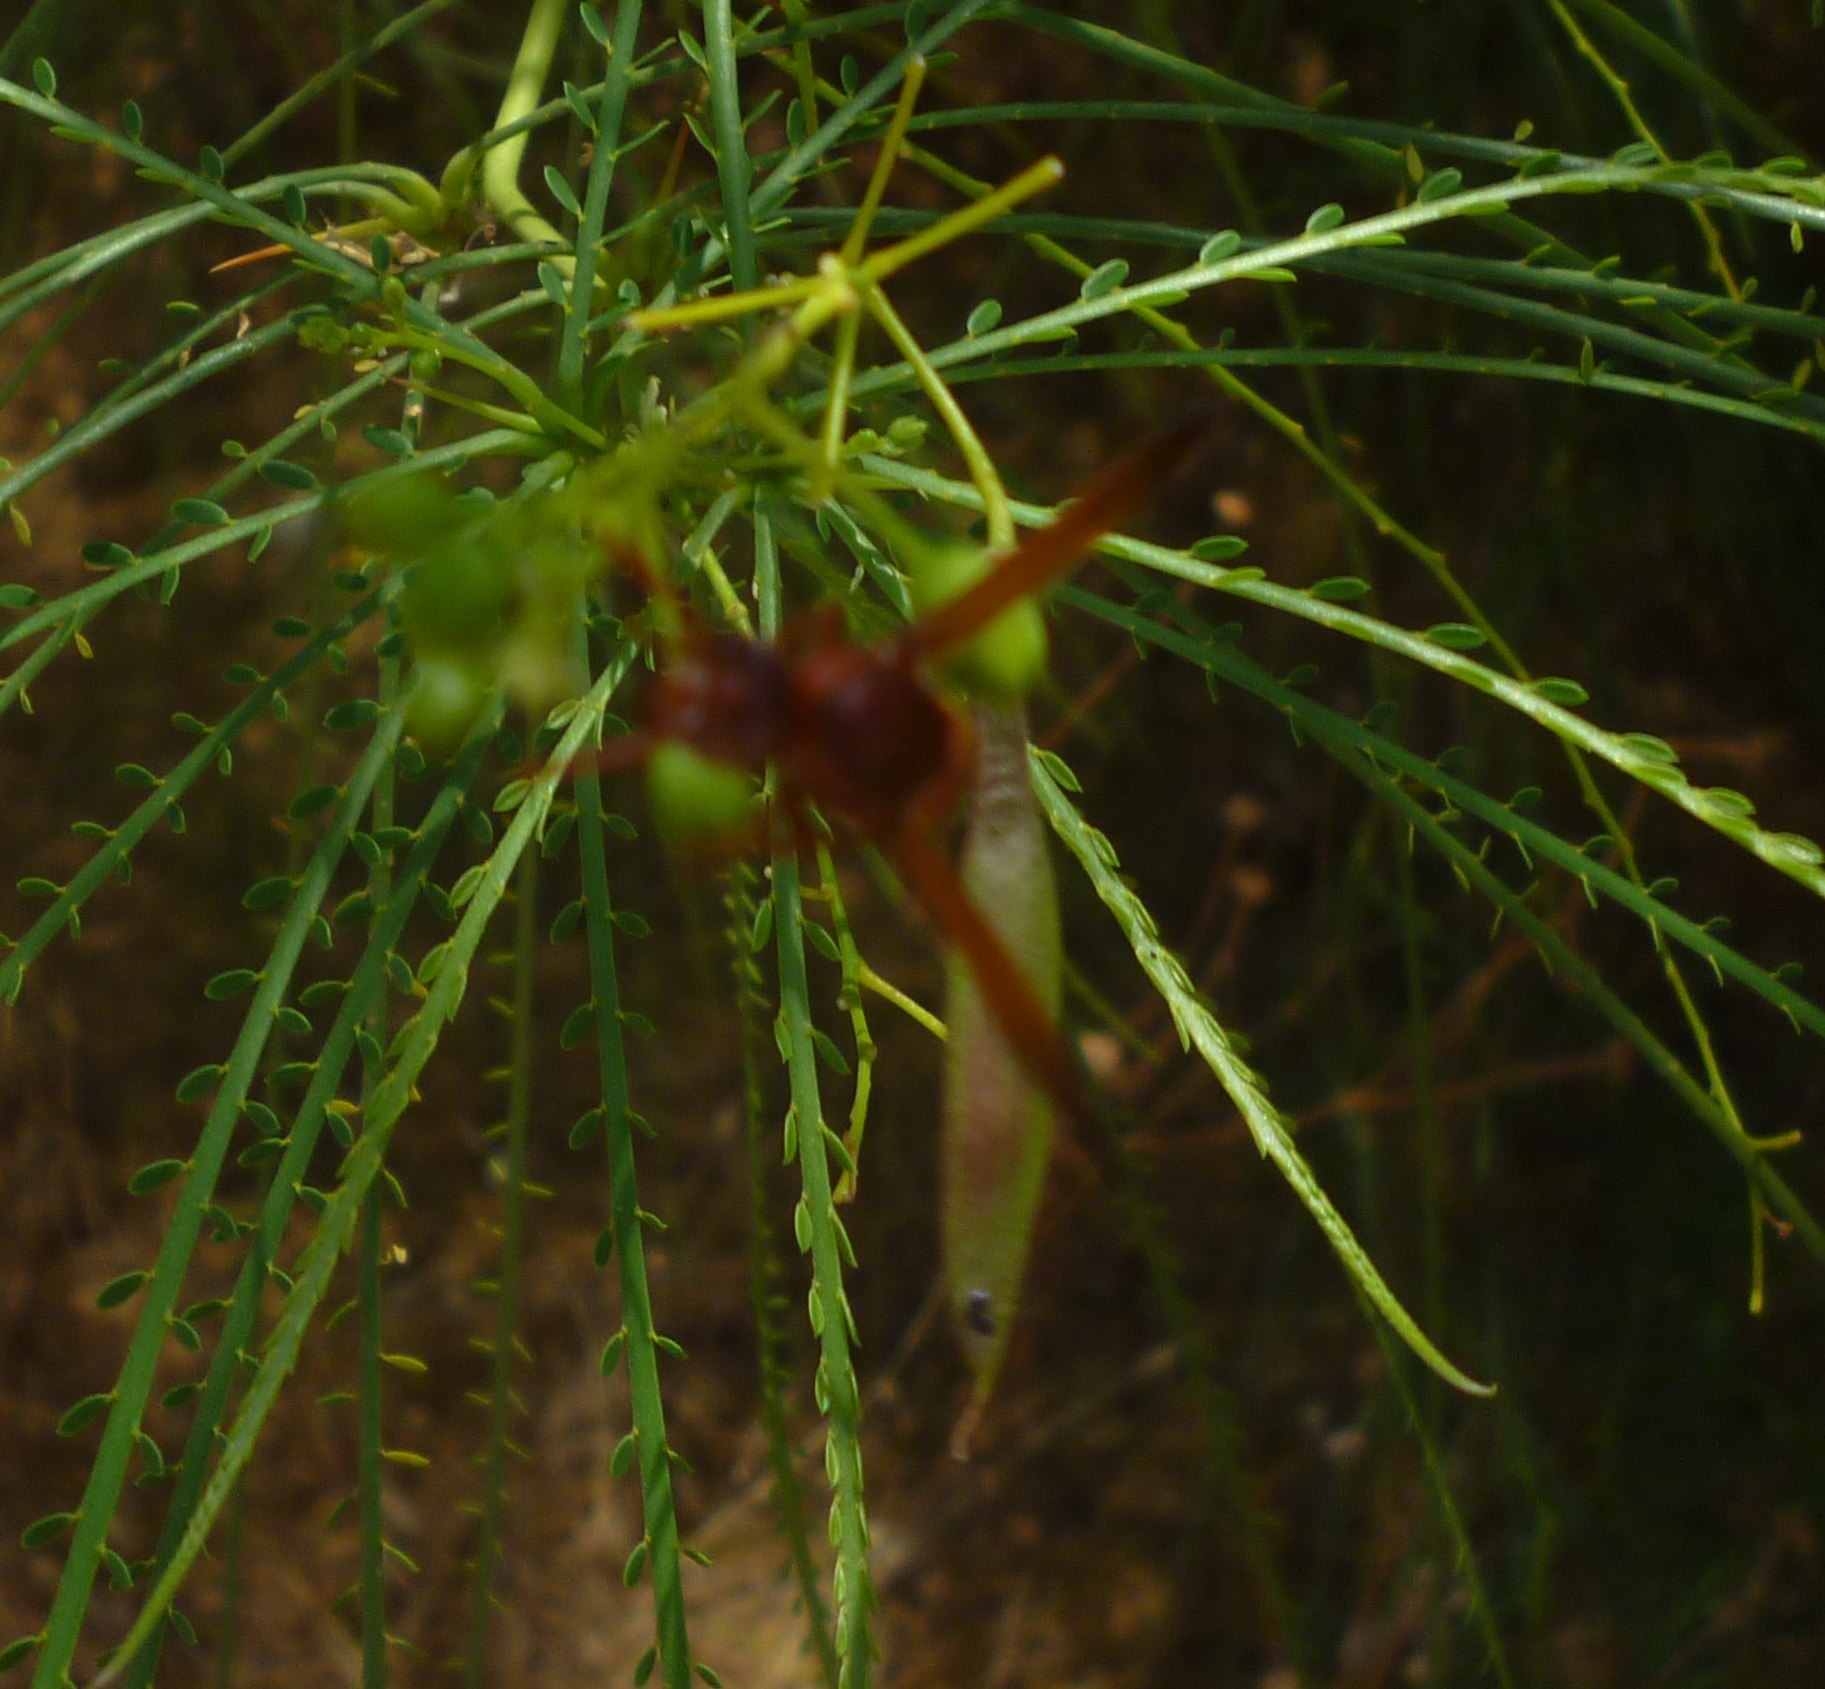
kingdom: Animalia
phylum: Arthropoda
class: Insecta
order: Hymenoptera
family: Eumenidae
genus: Rhynchium
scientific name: Rhynchium oculatum
